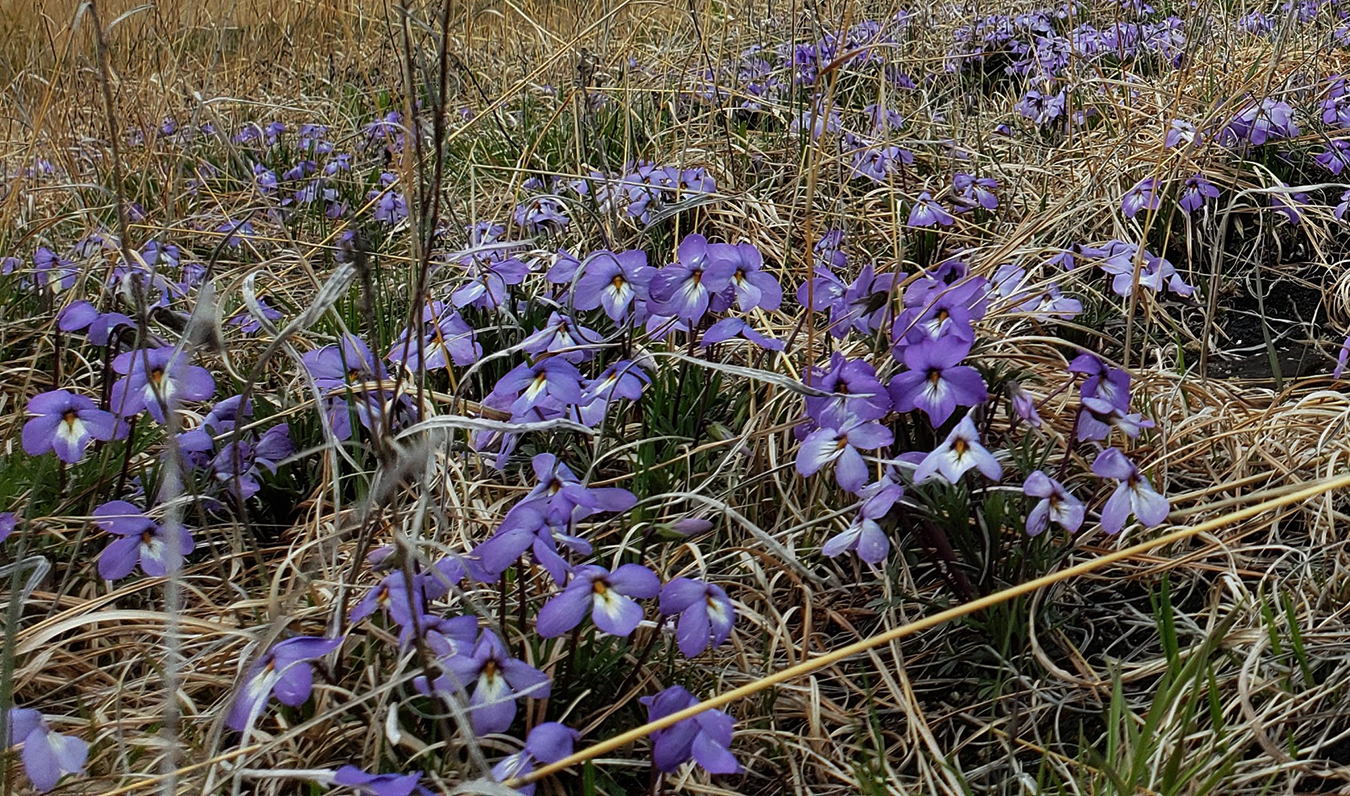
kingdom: Plantae
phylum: Tracheophyta
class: Magnoliopsida
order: Malpighiales
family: Violaceae
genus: Viola
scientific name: Viola pedata
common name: Pansy violet
